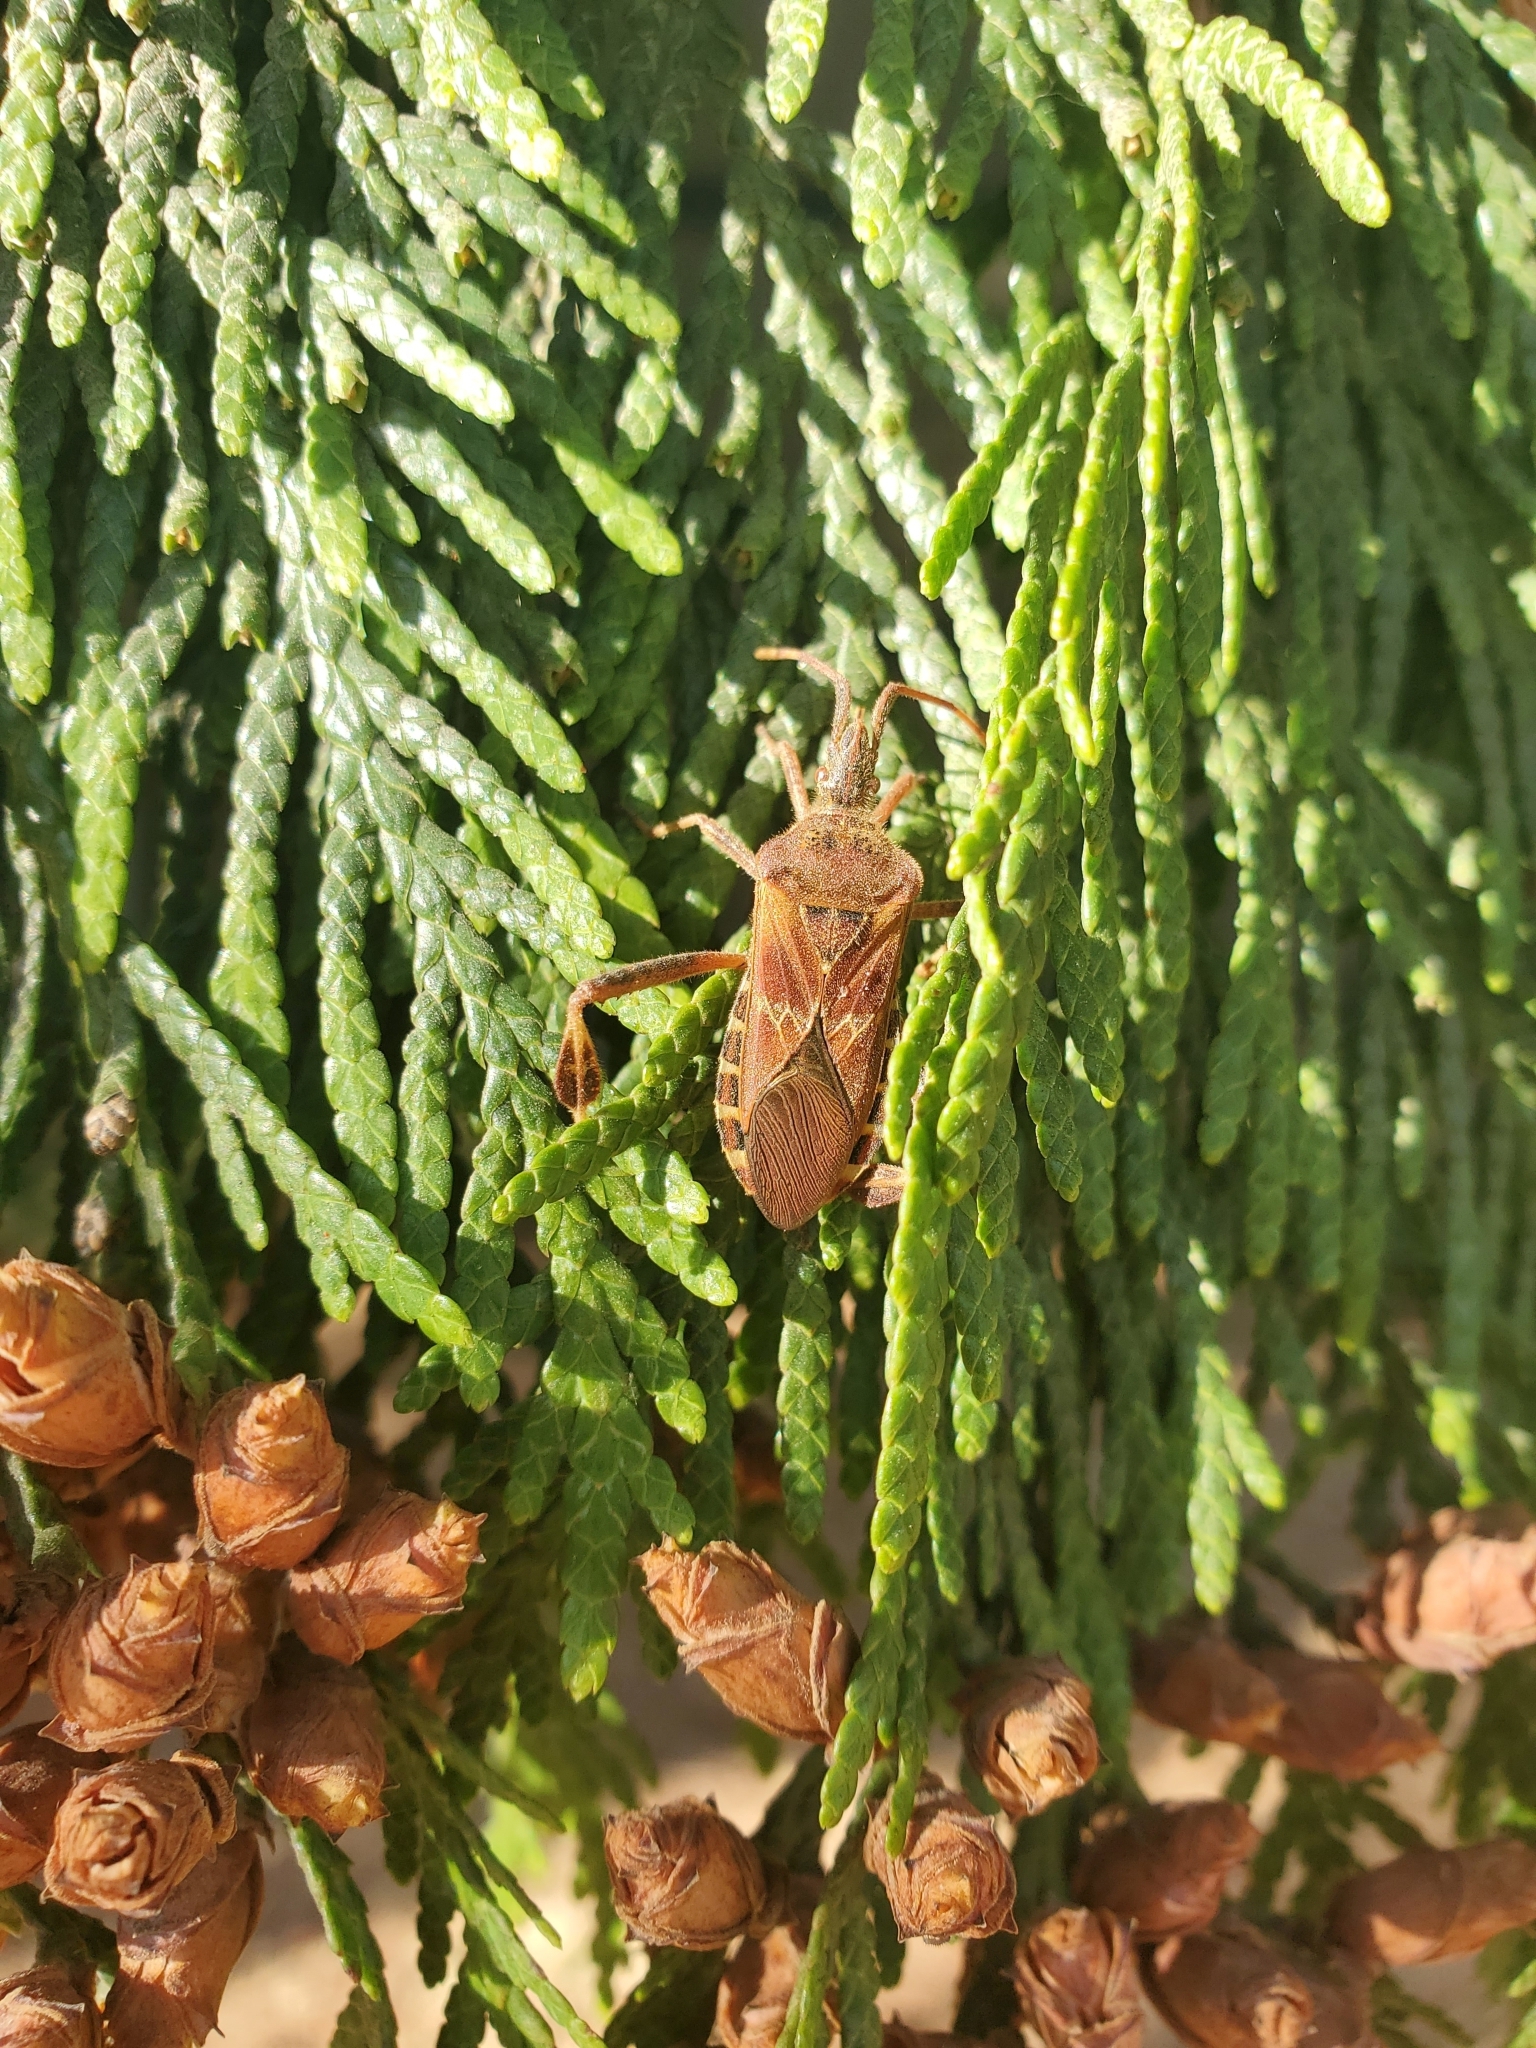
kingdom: Animalia
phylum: Arthropoda
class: Insecta
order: Hemiptera
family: Coreidae
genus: Leptoglossus
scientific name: Leptoglossus occidentalis
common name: Western conifer-seed bug
